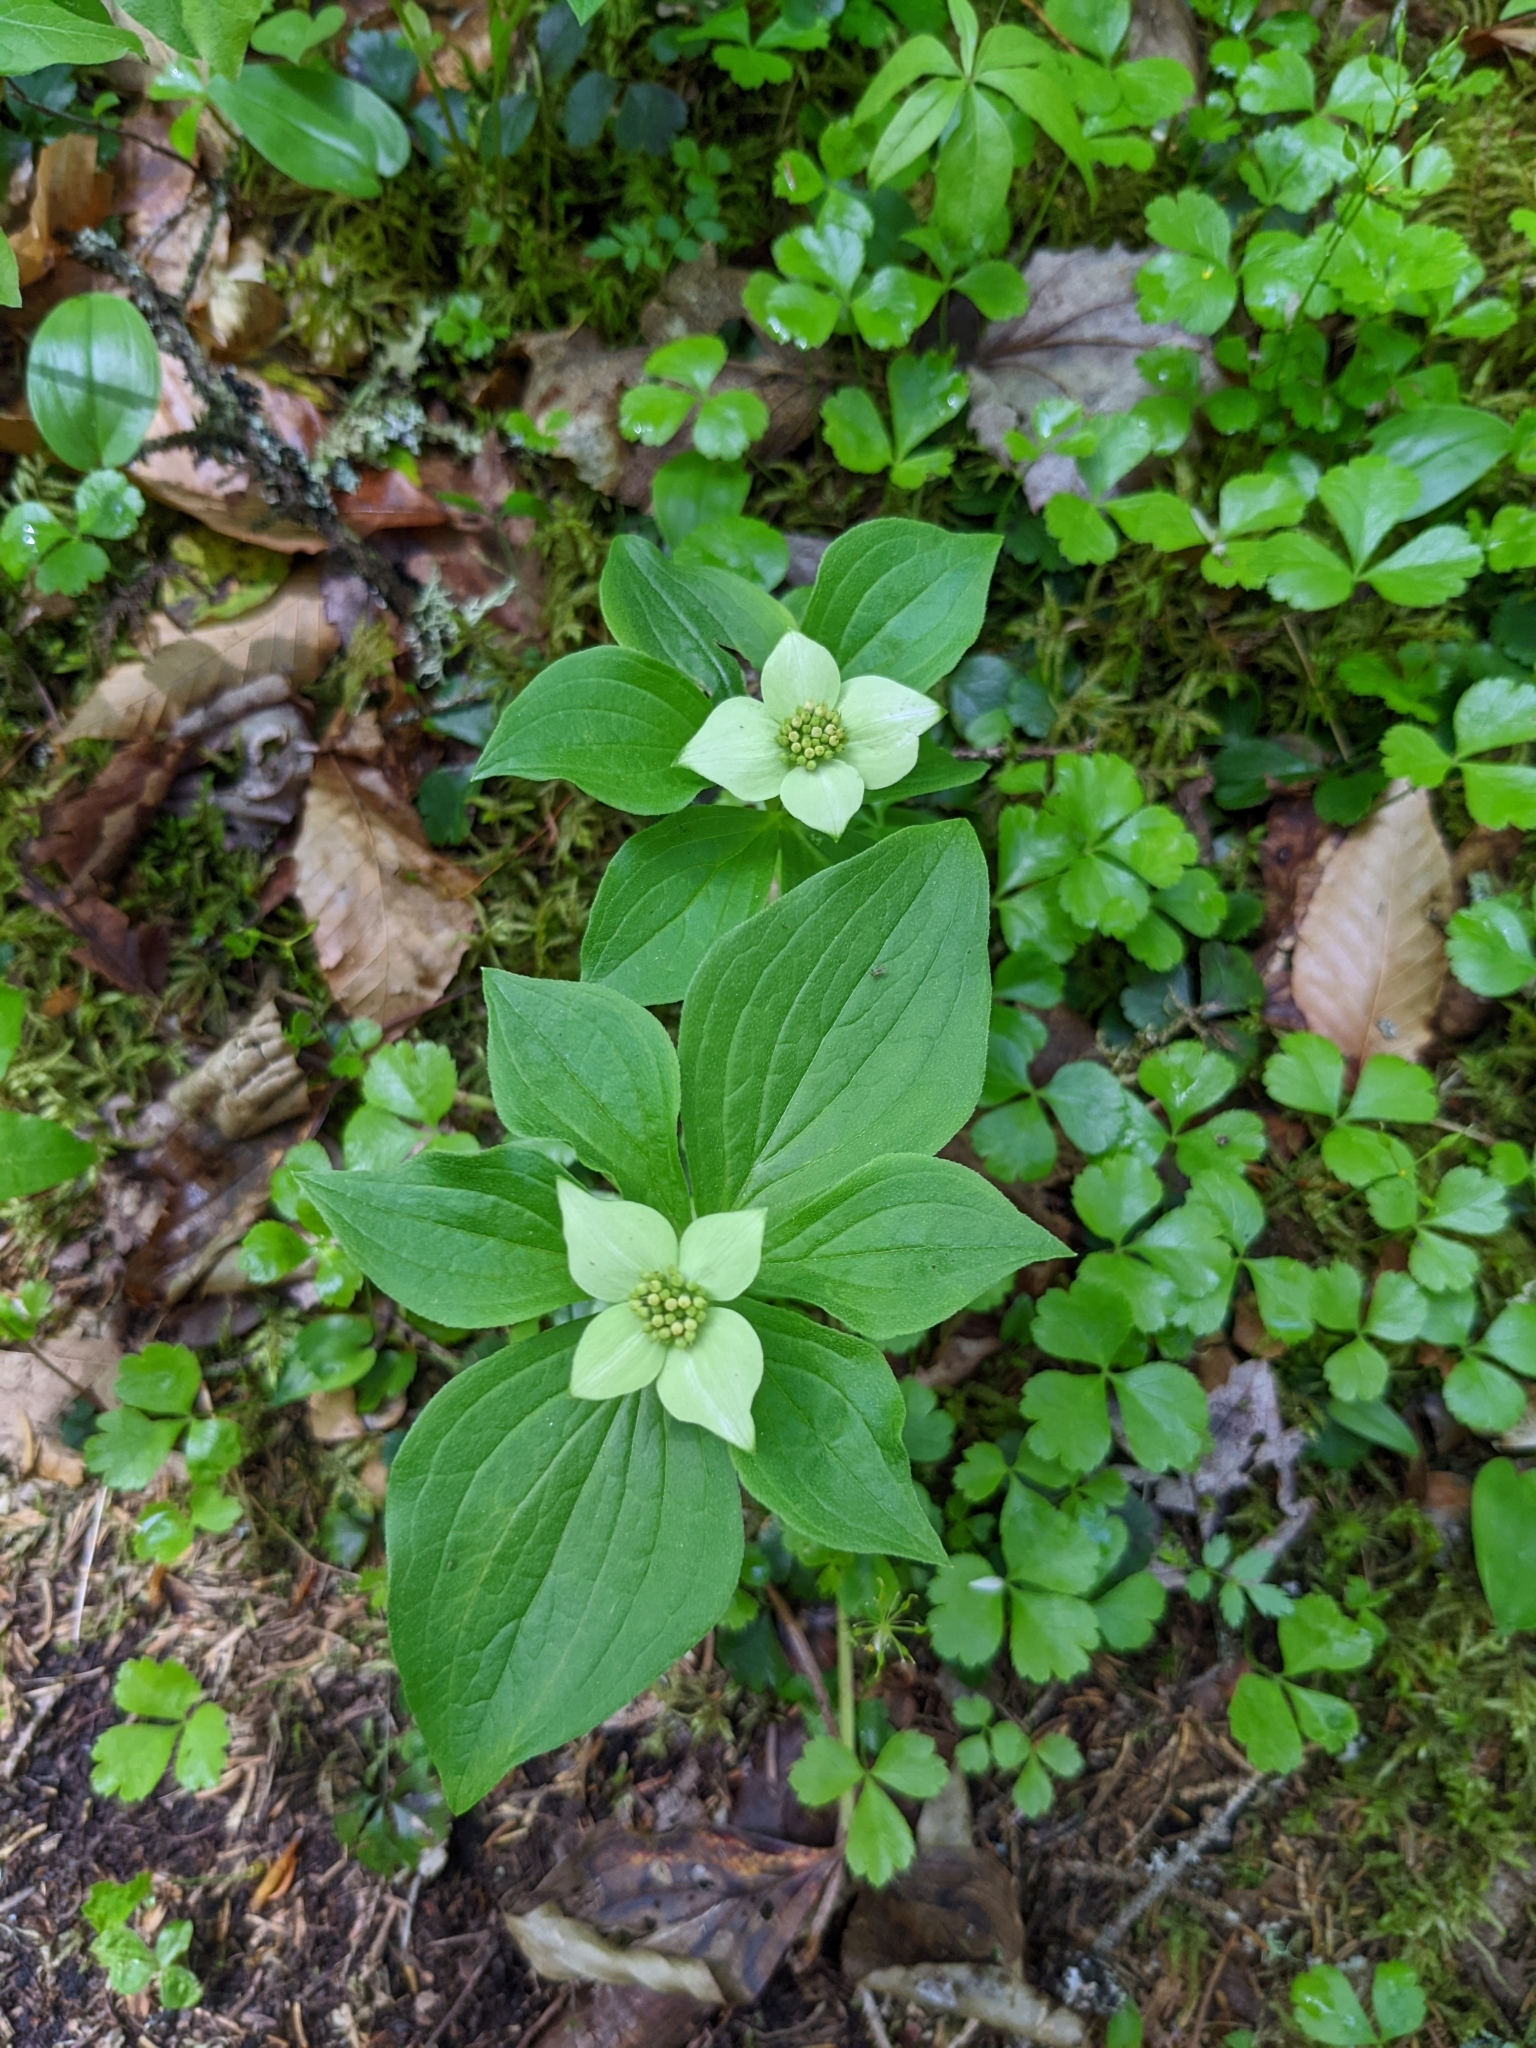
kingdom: Plantae
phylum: Tracheophyta
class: Magnoliopsida
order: Cornales
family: Cornaceae
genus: Cornus
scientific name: Cornus canadensis
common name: Creeping dogwood
